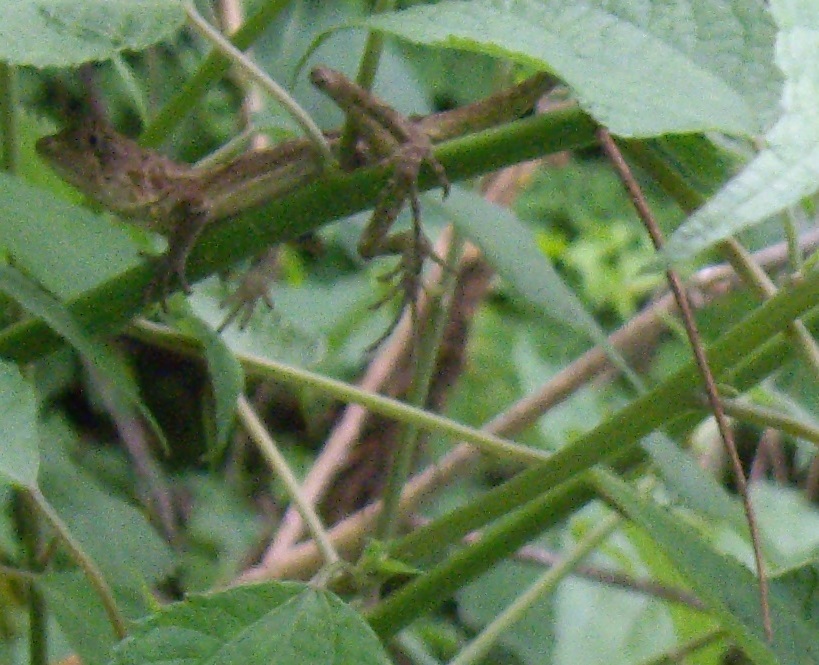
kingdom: Animalia
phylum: Chordata
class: Squamata
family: Agamidae
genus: Diploderma
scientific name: Diploderma swinhonis
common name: Taiwan japalure
